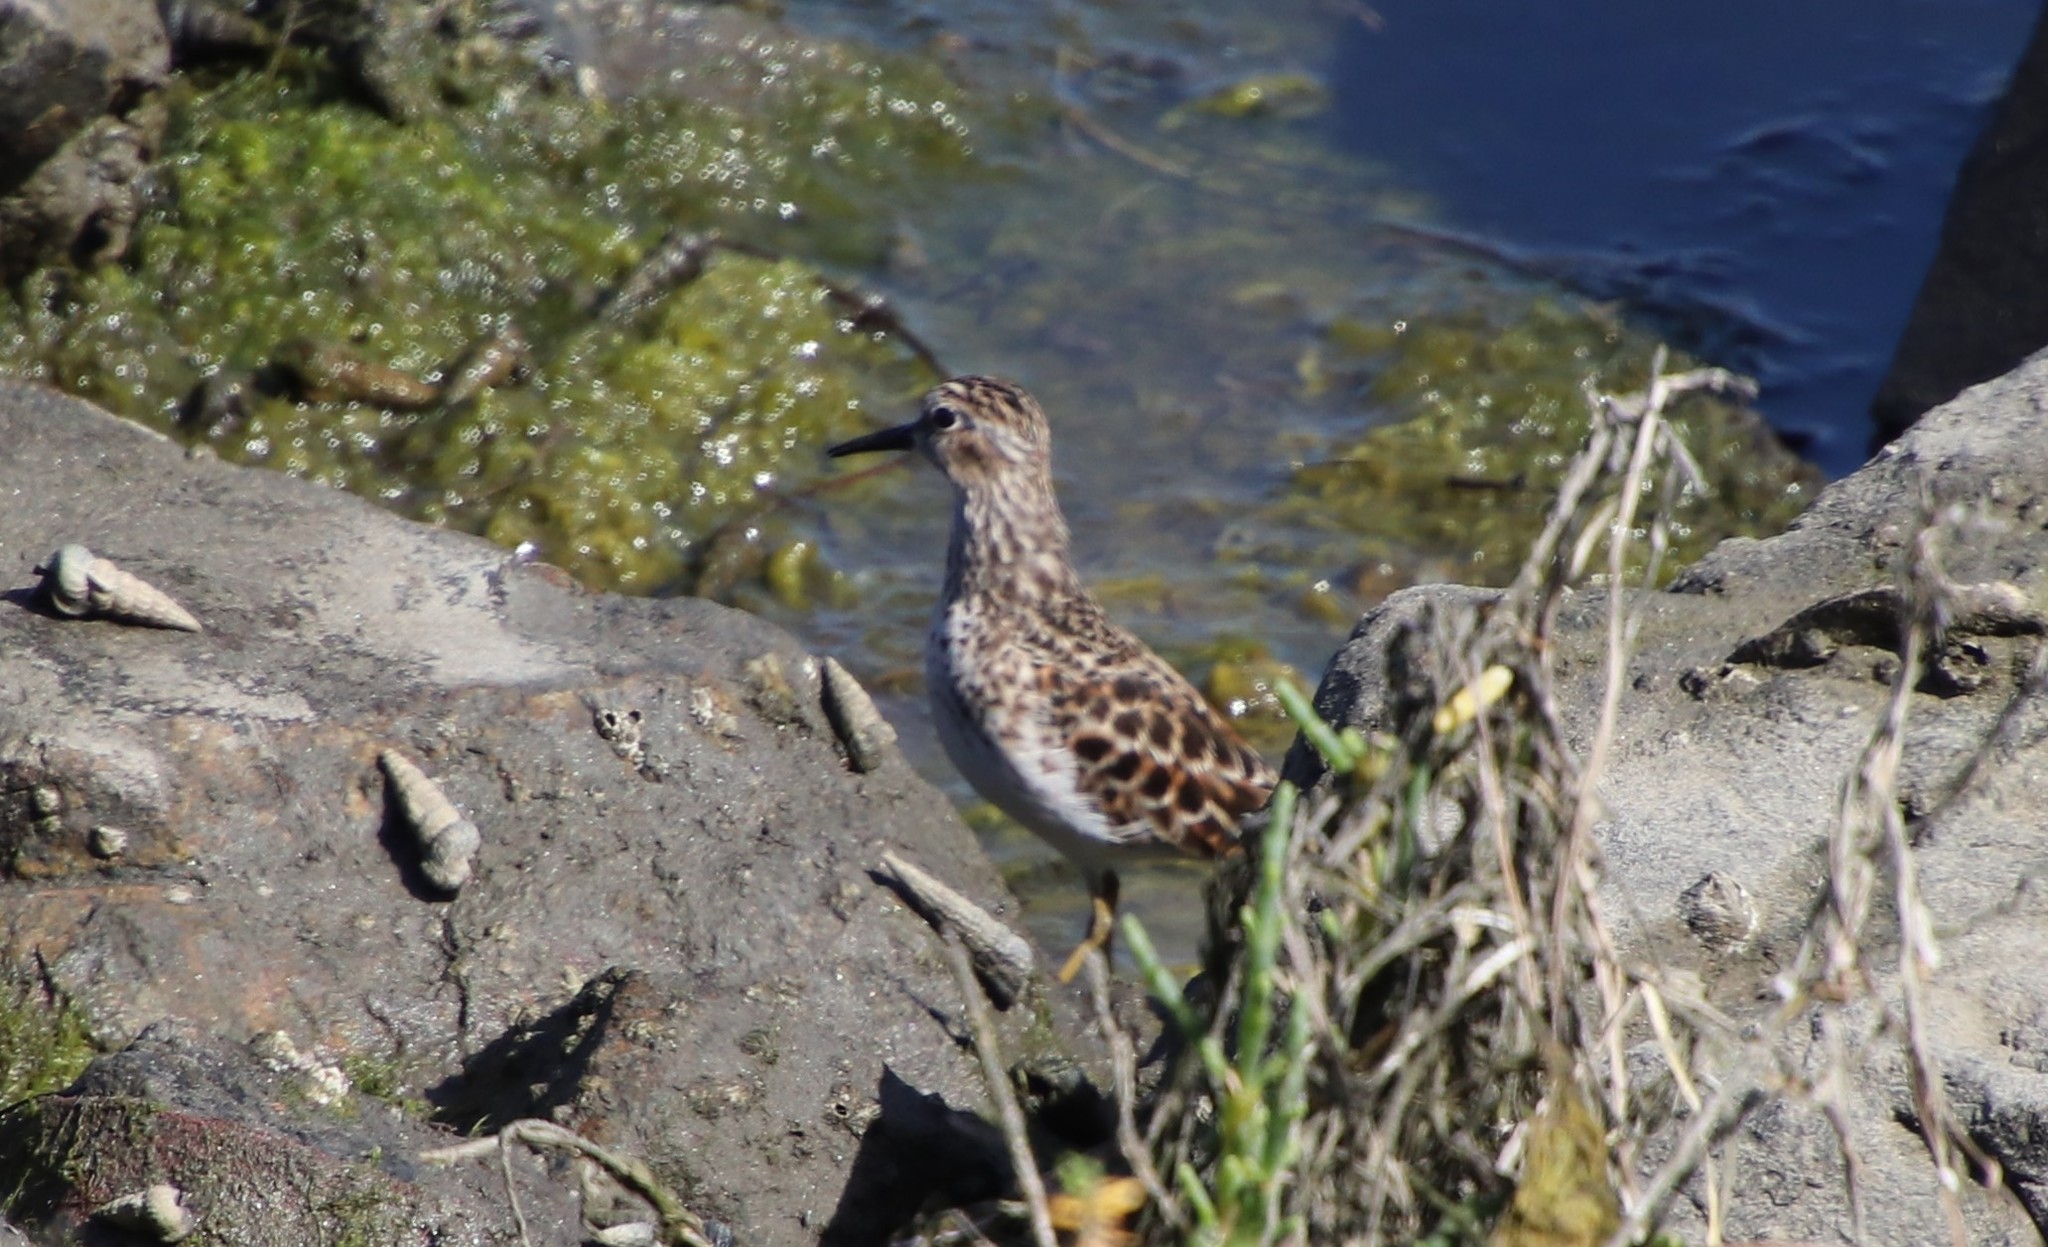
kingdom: Animalia
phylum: Chordata
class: Aves
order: Charadriiformes
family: Scolopacidae
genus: Calidris
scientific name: Calidris minutilla
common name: Least sandpiper
